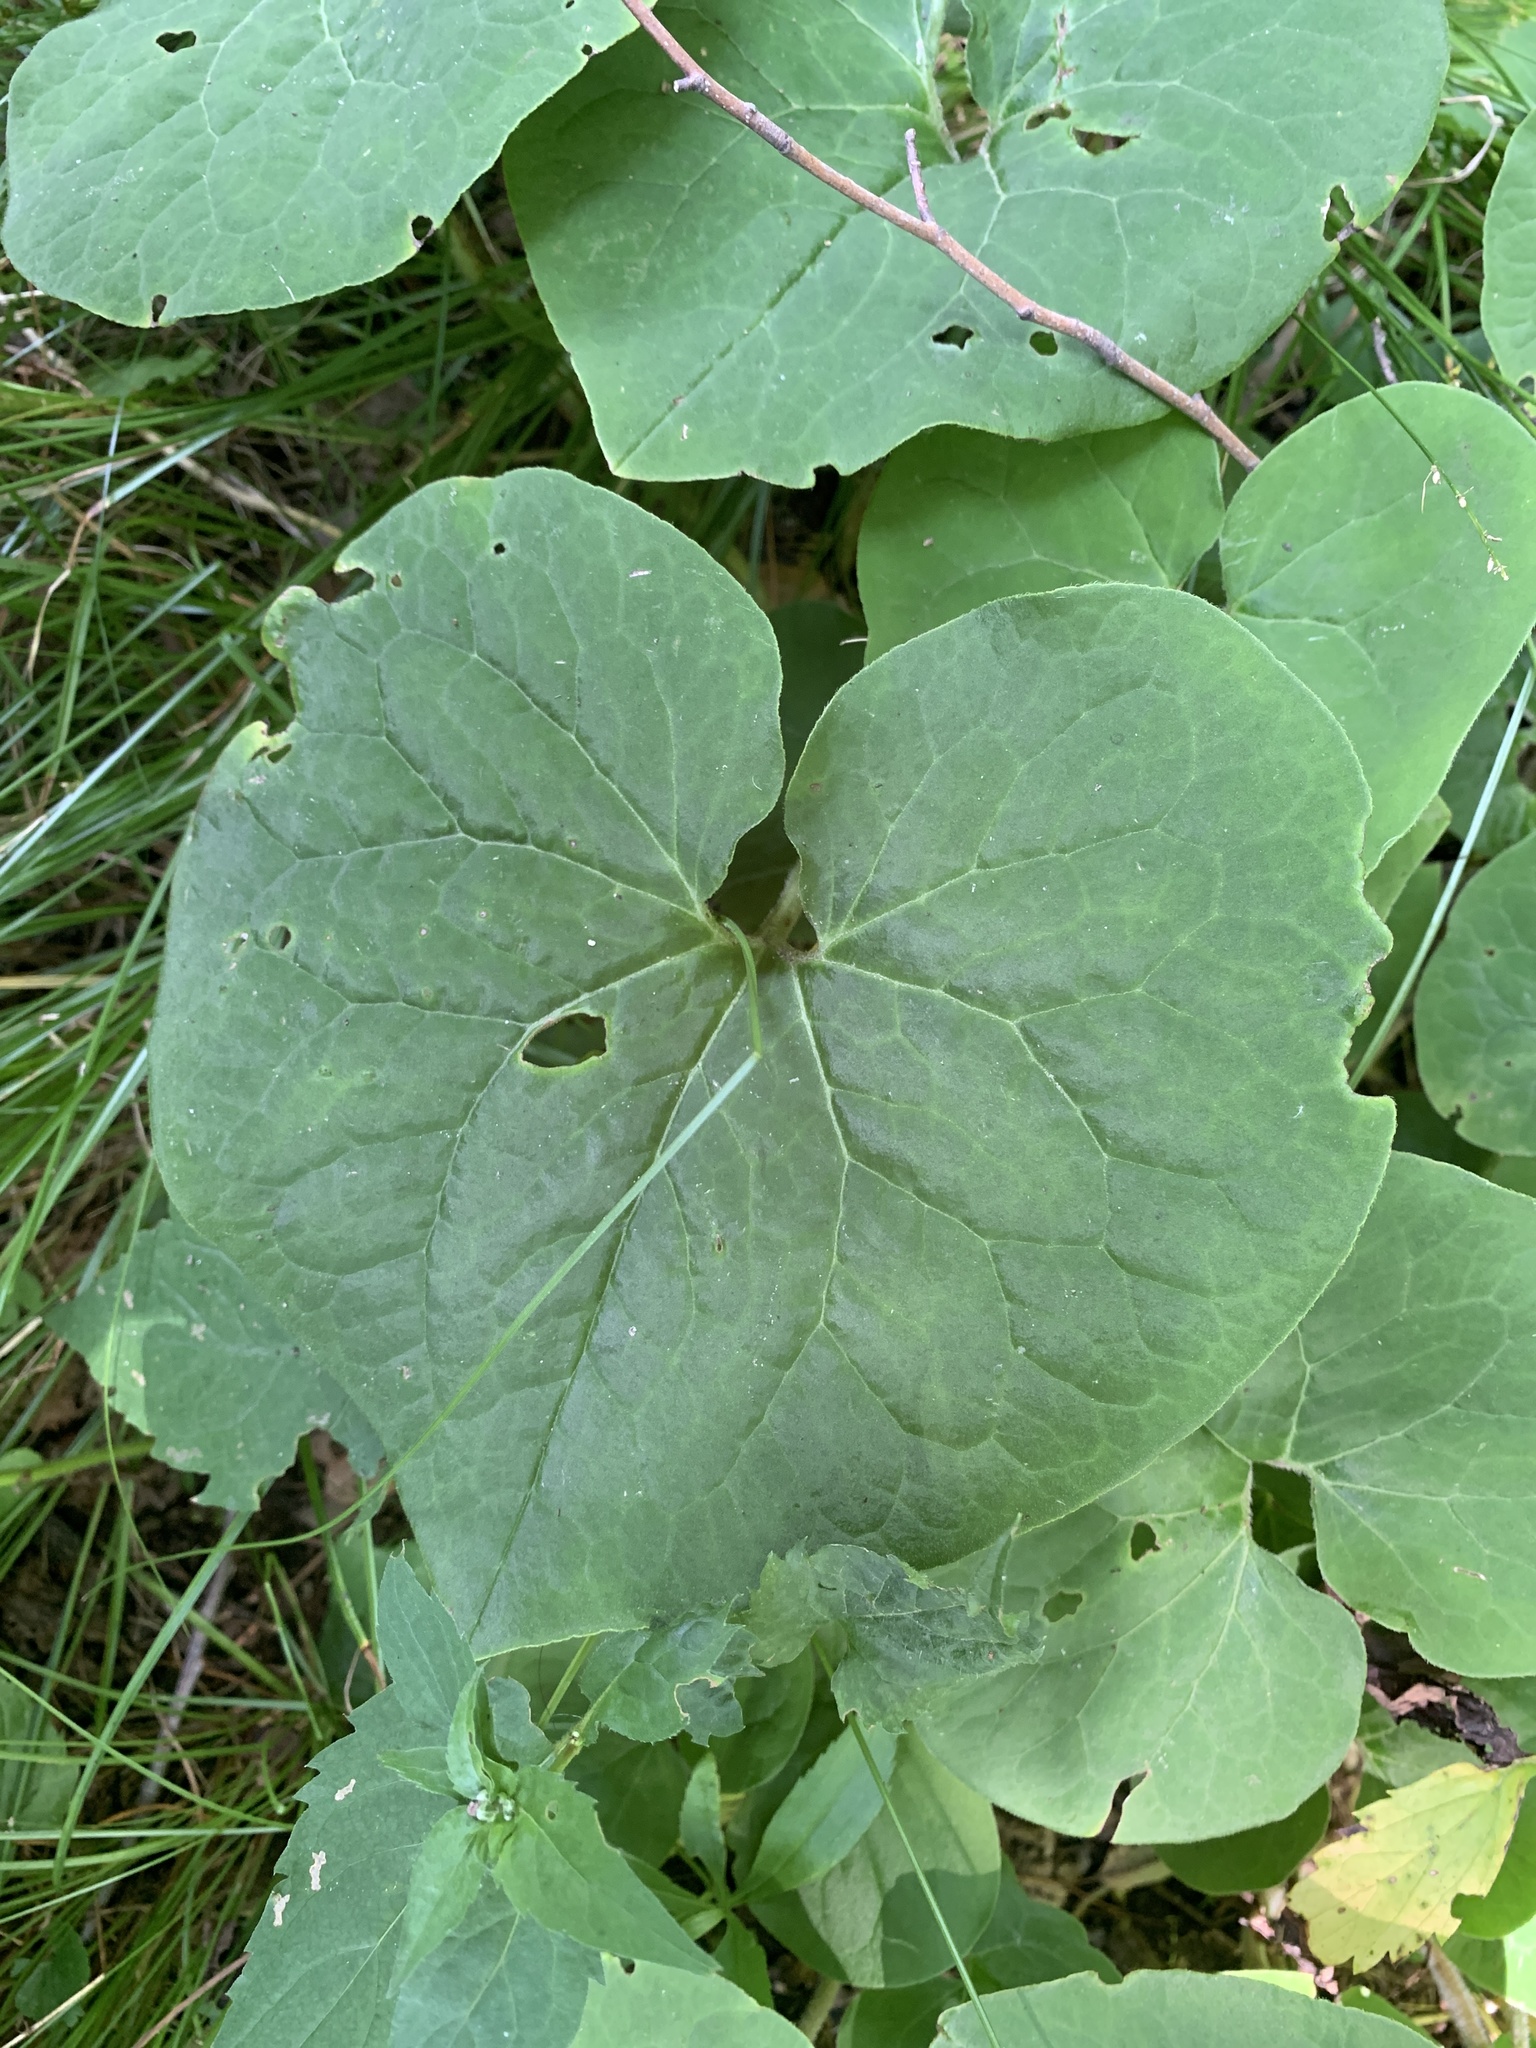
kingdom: Plantae
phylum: Tracheophyta
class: Magnoliopsida
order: Piperales
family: Aristolochiaceae
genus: Asarum
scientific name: Asarum canadense
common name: Wild ginger
